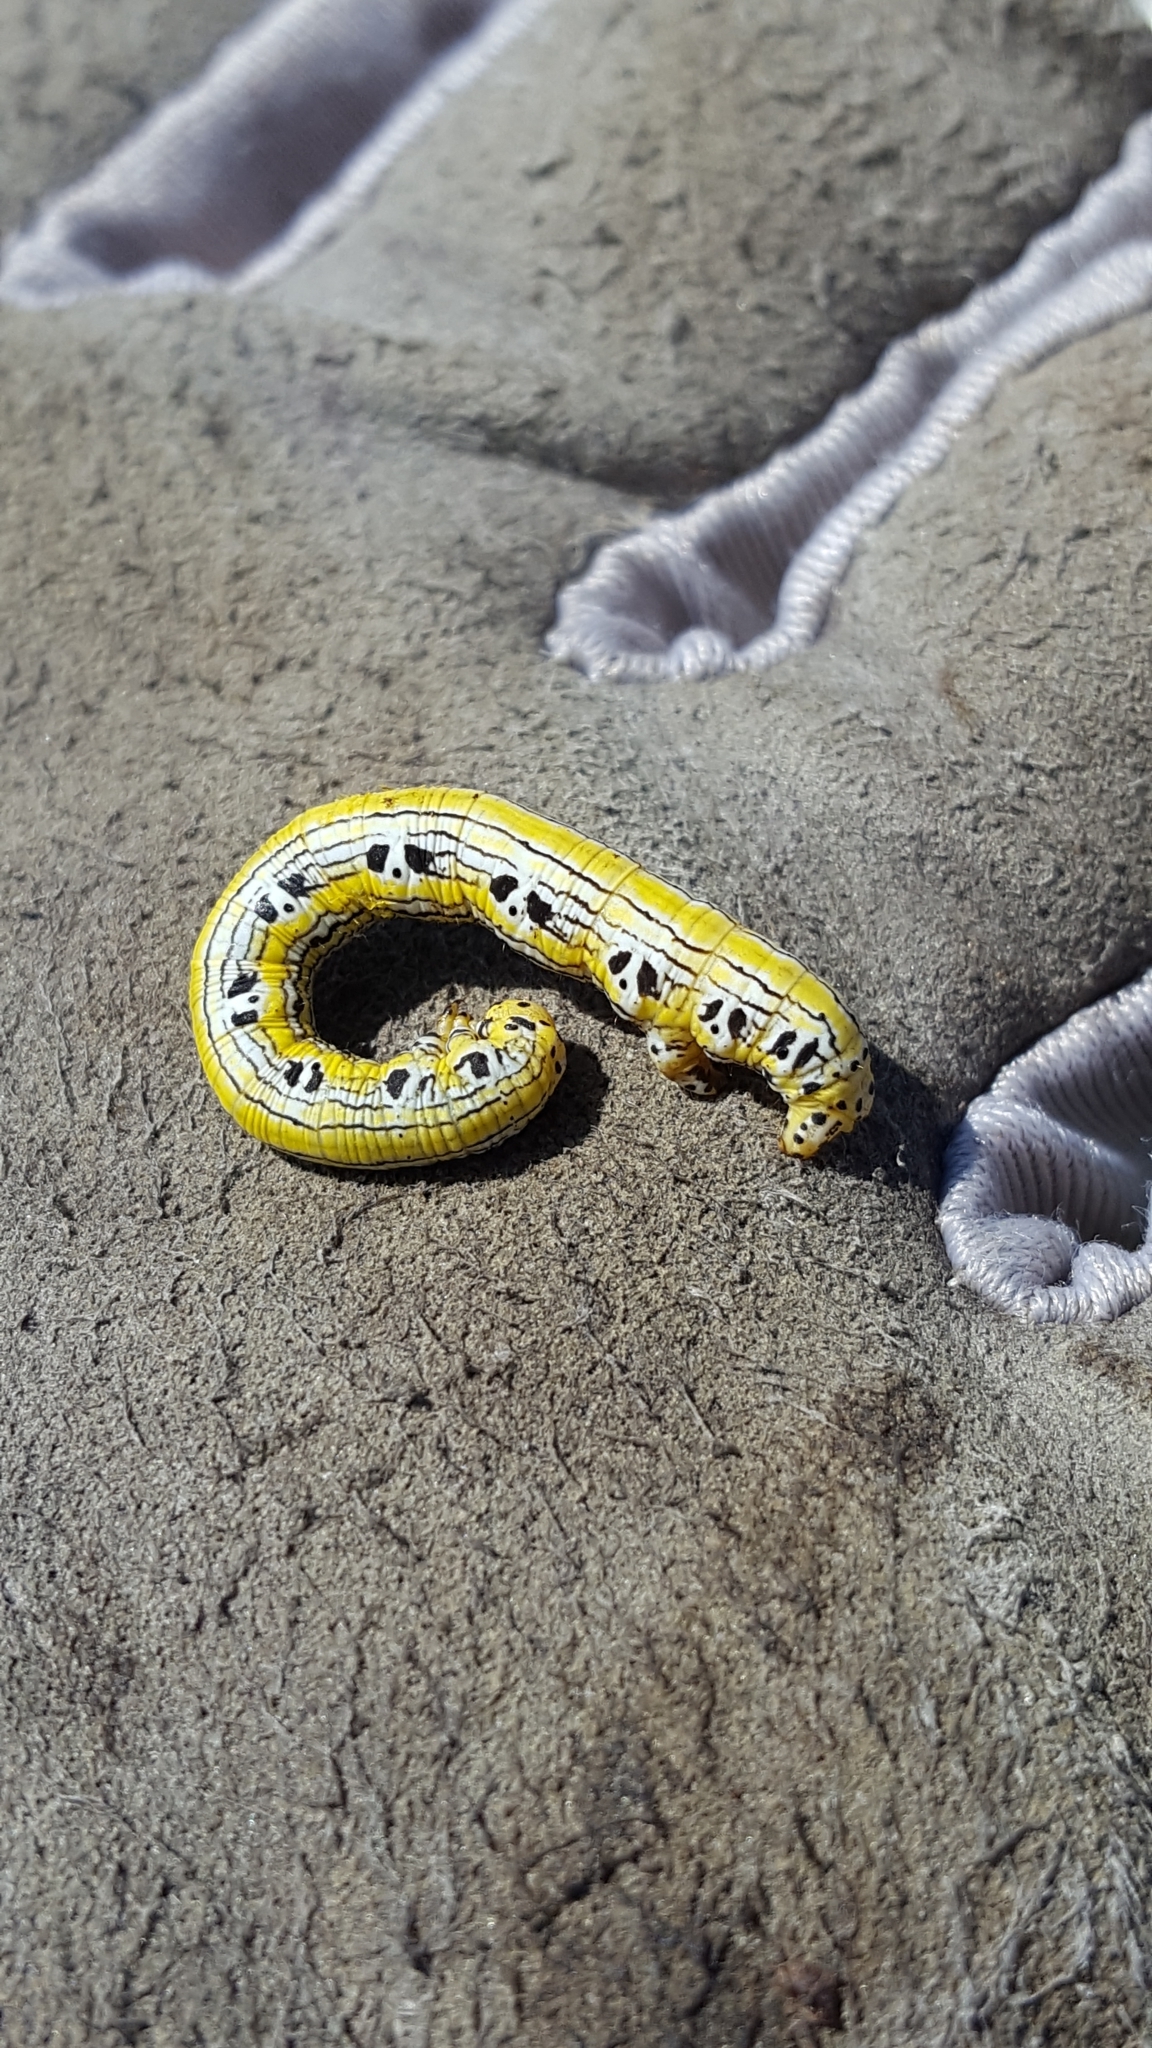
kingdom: Animalia
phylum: Arthropoda
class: Insecta
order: Lepidoptera
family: Geometridae
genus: Cingilia
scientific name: Cingilia catenaria
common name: Chain-dotted geometer
